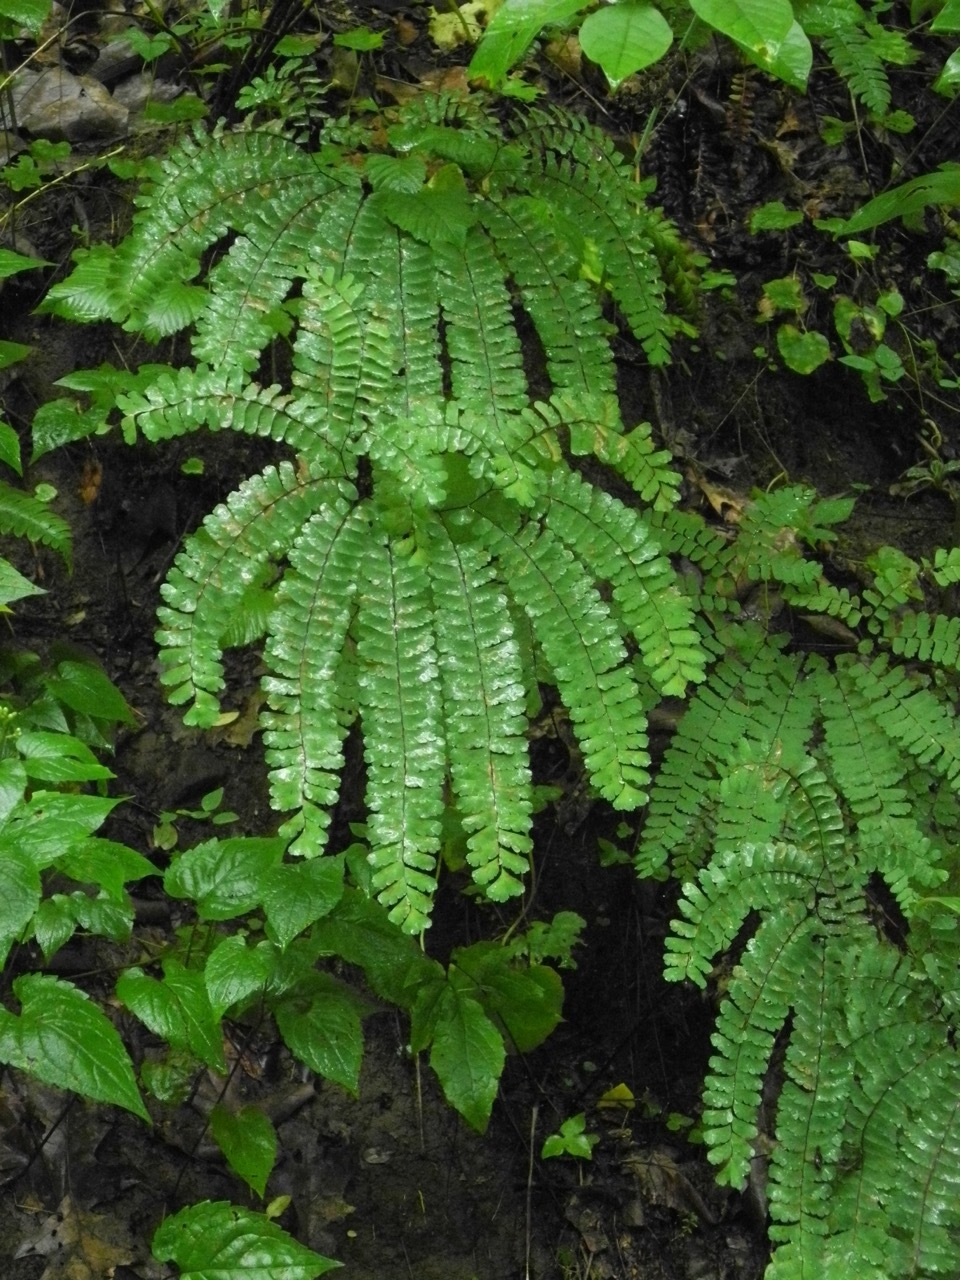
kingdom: Plantae
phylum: Tracheophyta
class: Polypodiopsida
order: Polypodiales
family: Pteridaceae
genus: Adiantum
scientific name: Adiantum pedatum
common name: Five-finger fern
